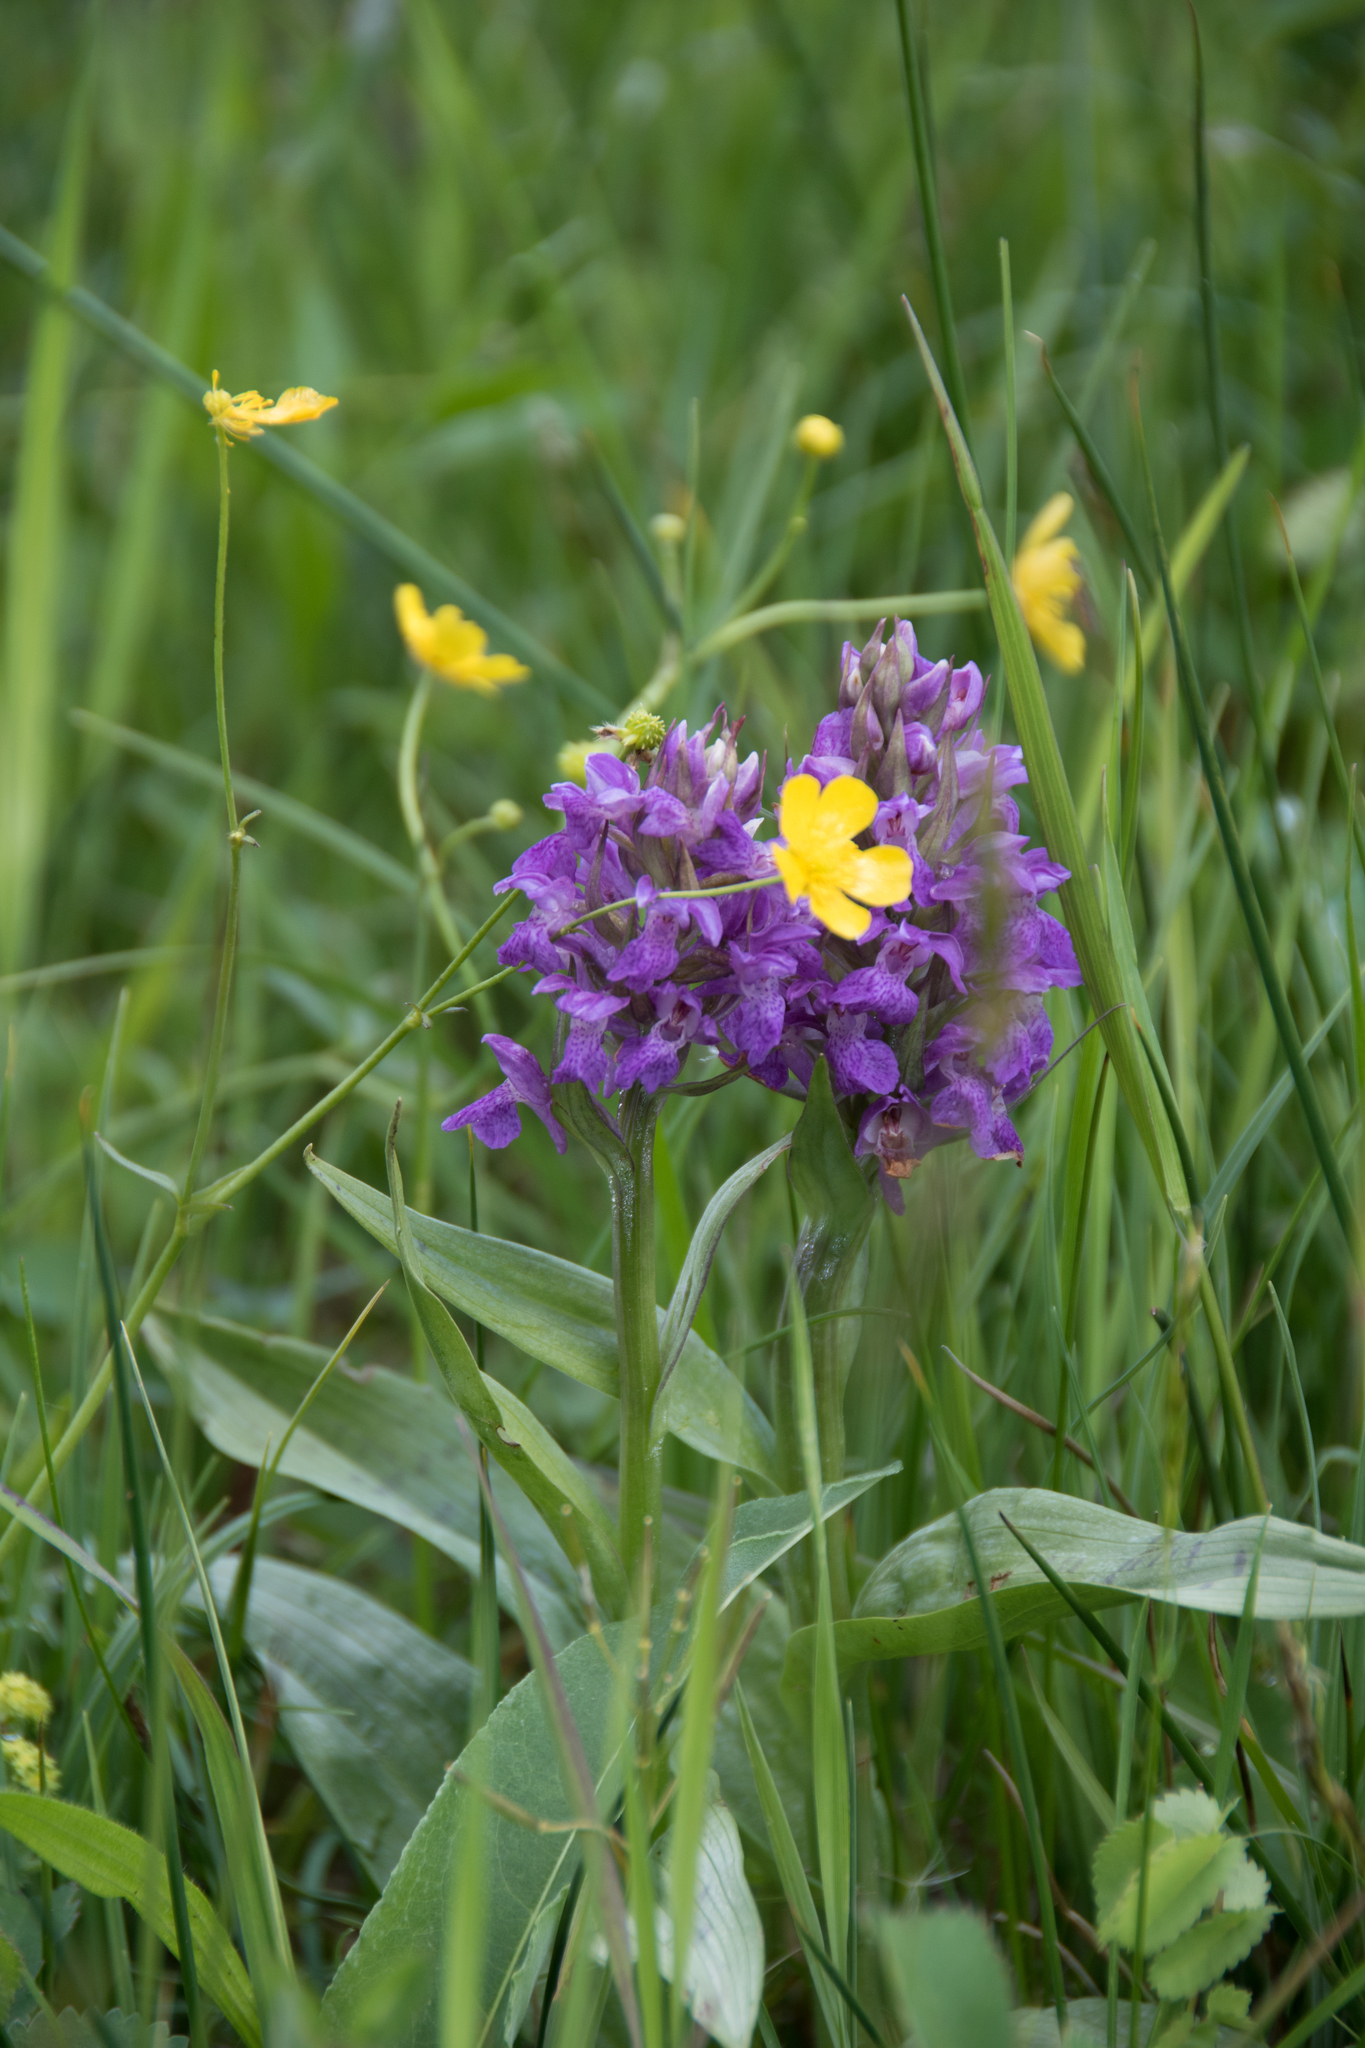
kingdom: Plantae
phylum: Tracheophyta
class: Liliopsida
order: Asparagales
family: Orchidaceae
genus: Dactylorhiza
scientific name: Dactylorhiza majalis
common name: Marsh orchid
